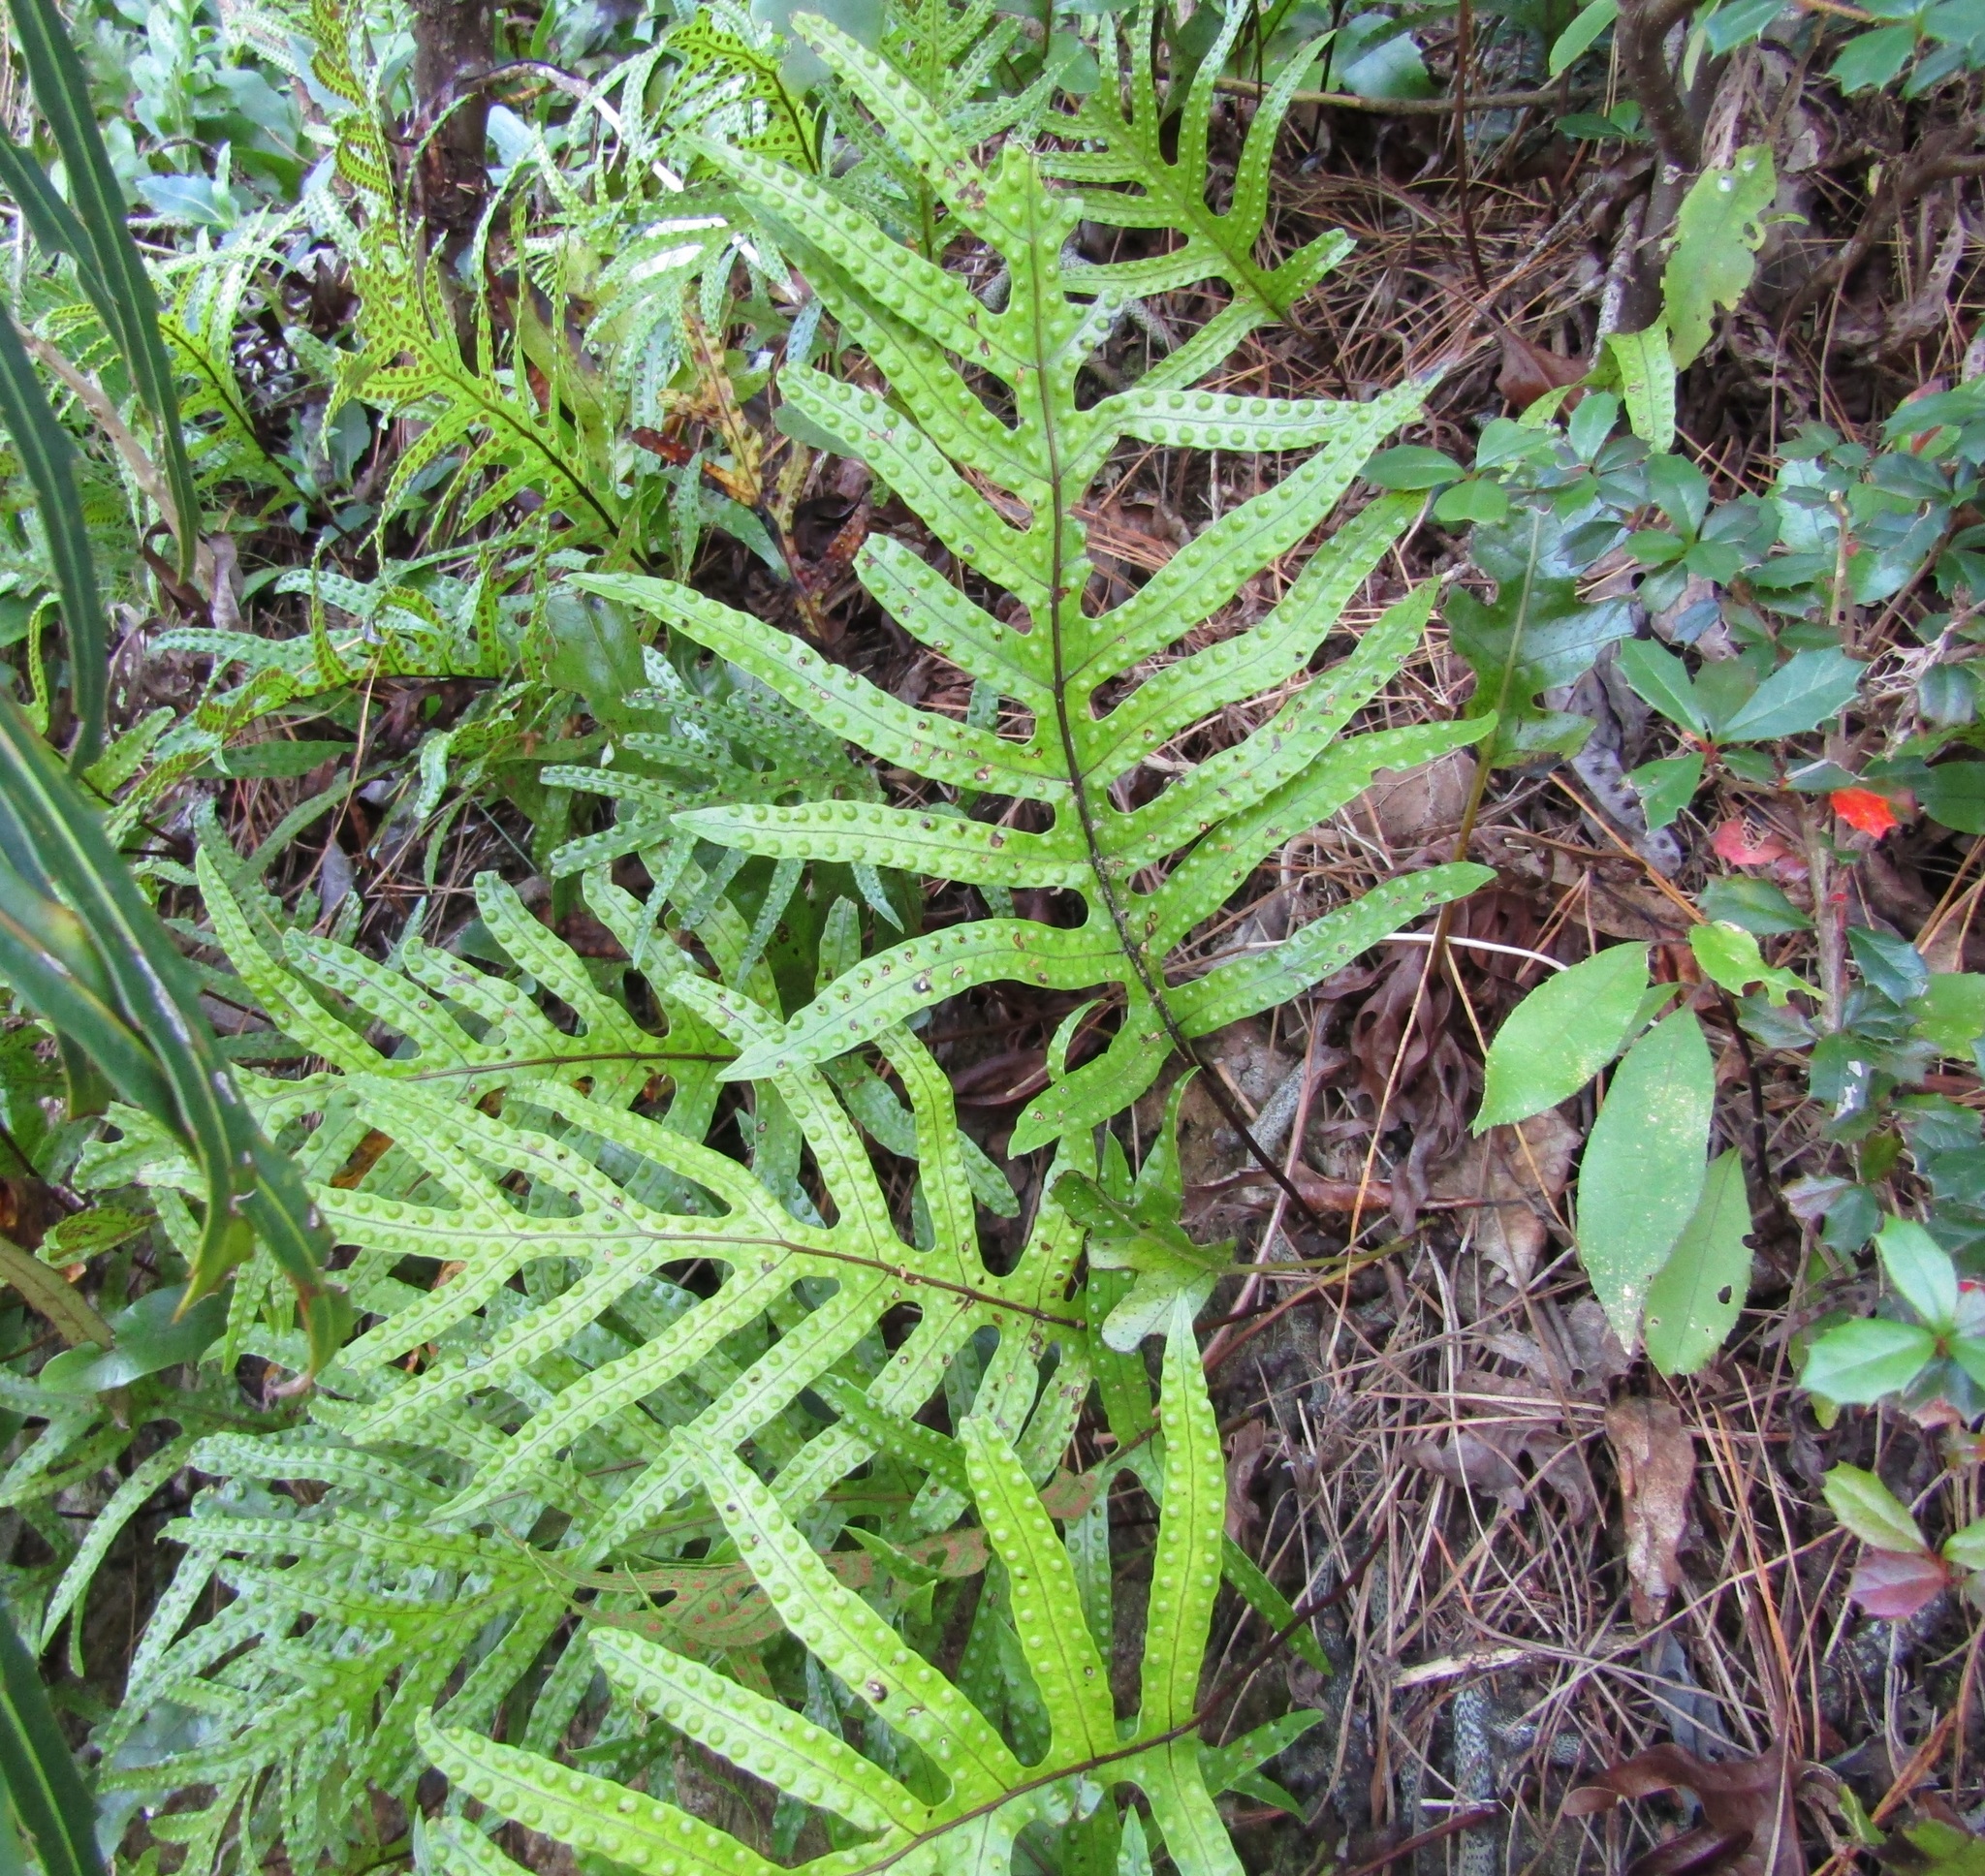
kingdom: Plantae
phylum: Tracheophyta
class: Polypodiopsida
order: Polypodiales
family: Polypodiaceae
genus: Lecanopteris
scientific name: Lecanopteris pustulata
